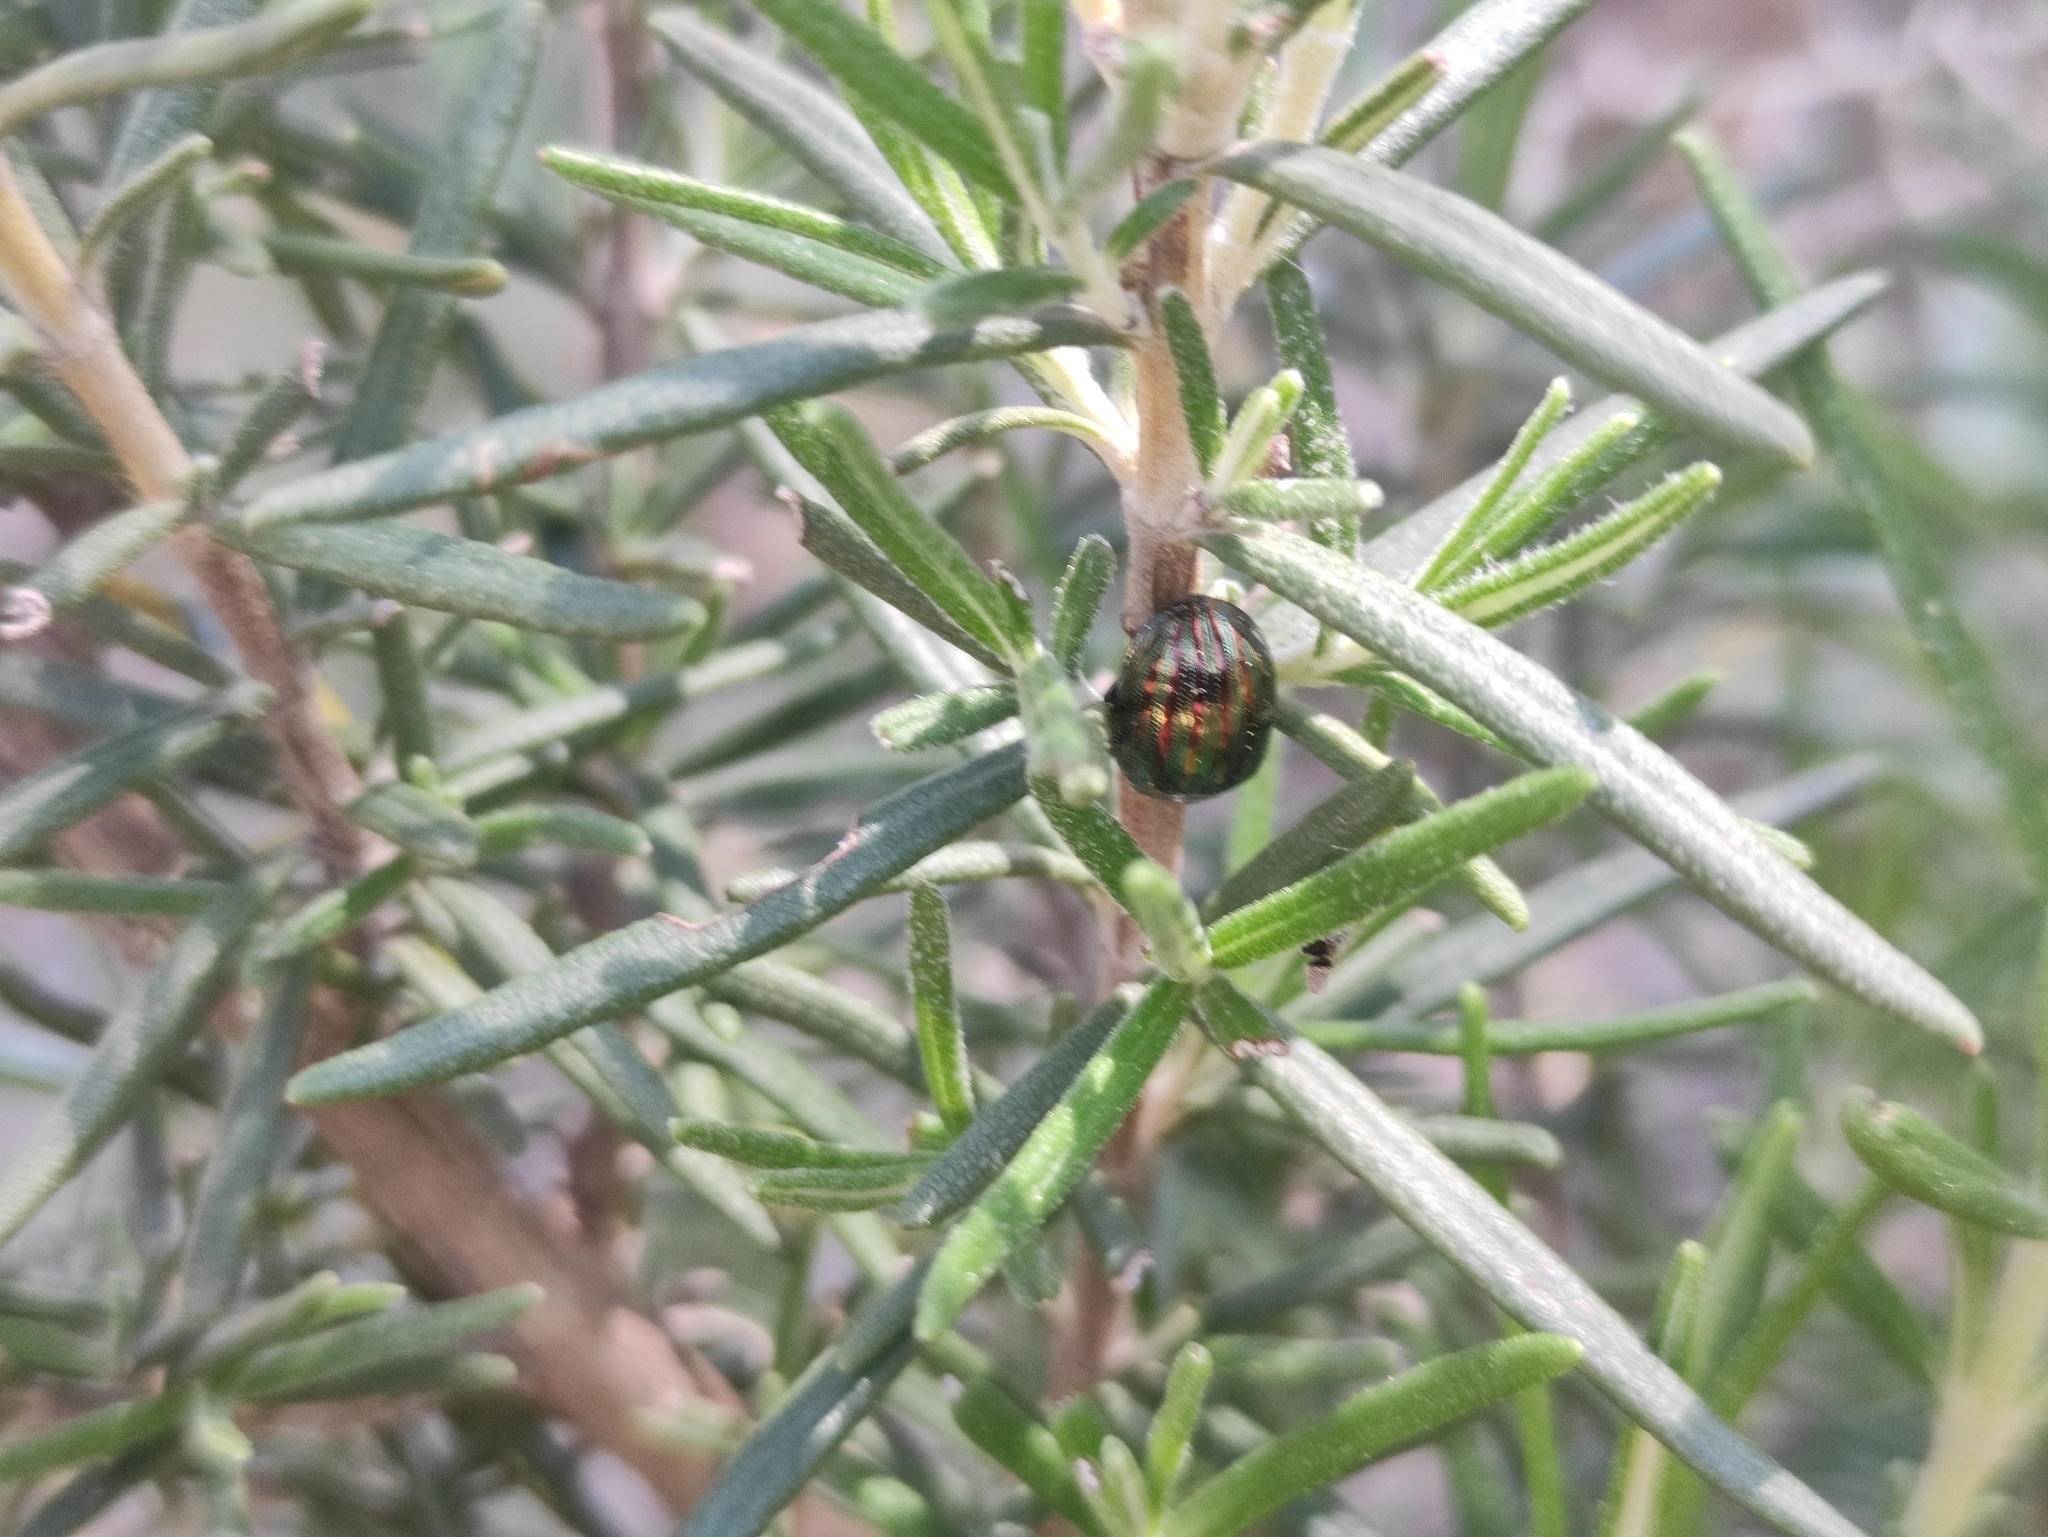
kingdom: Animalia
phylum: Arthropoda
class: Insecta
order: Coleoptera
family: Chrysomelidae
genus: Chrysolina
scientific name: Chrysolina americana
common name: Rosemary beetle
